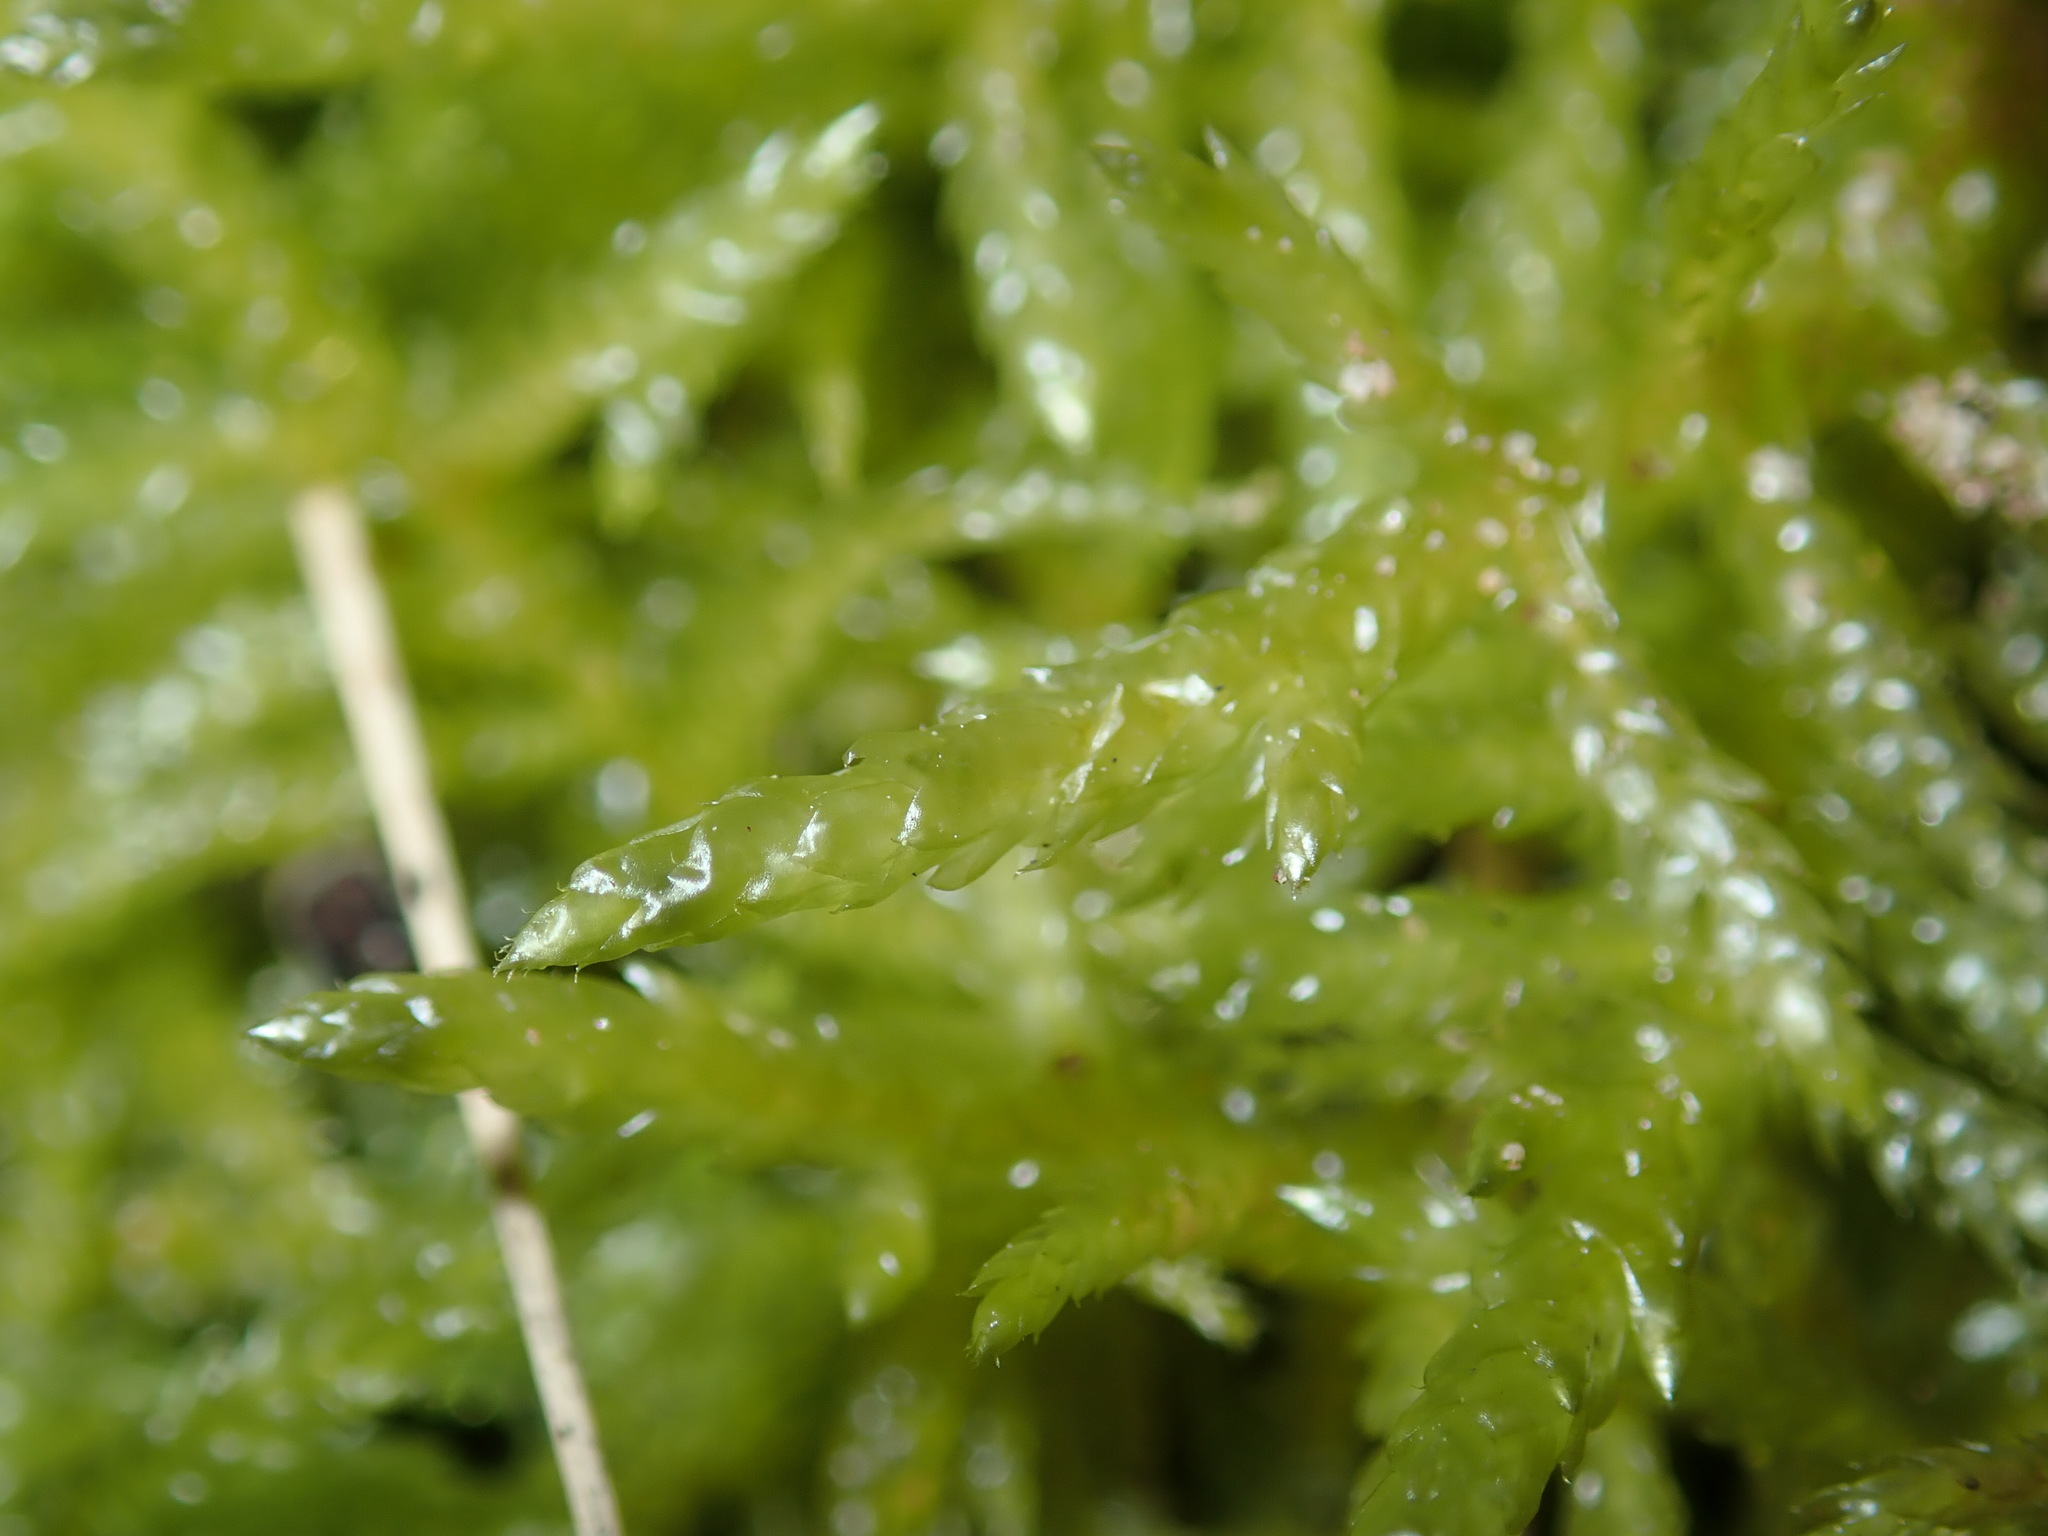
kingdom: Plantae
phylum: Bryophyta
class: Bryopsida
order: Hypnales
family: Brachytheciaceae
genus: Pseudoscleropodium
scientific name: Pseudoscleropodium purum
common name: Neat feather-moss
